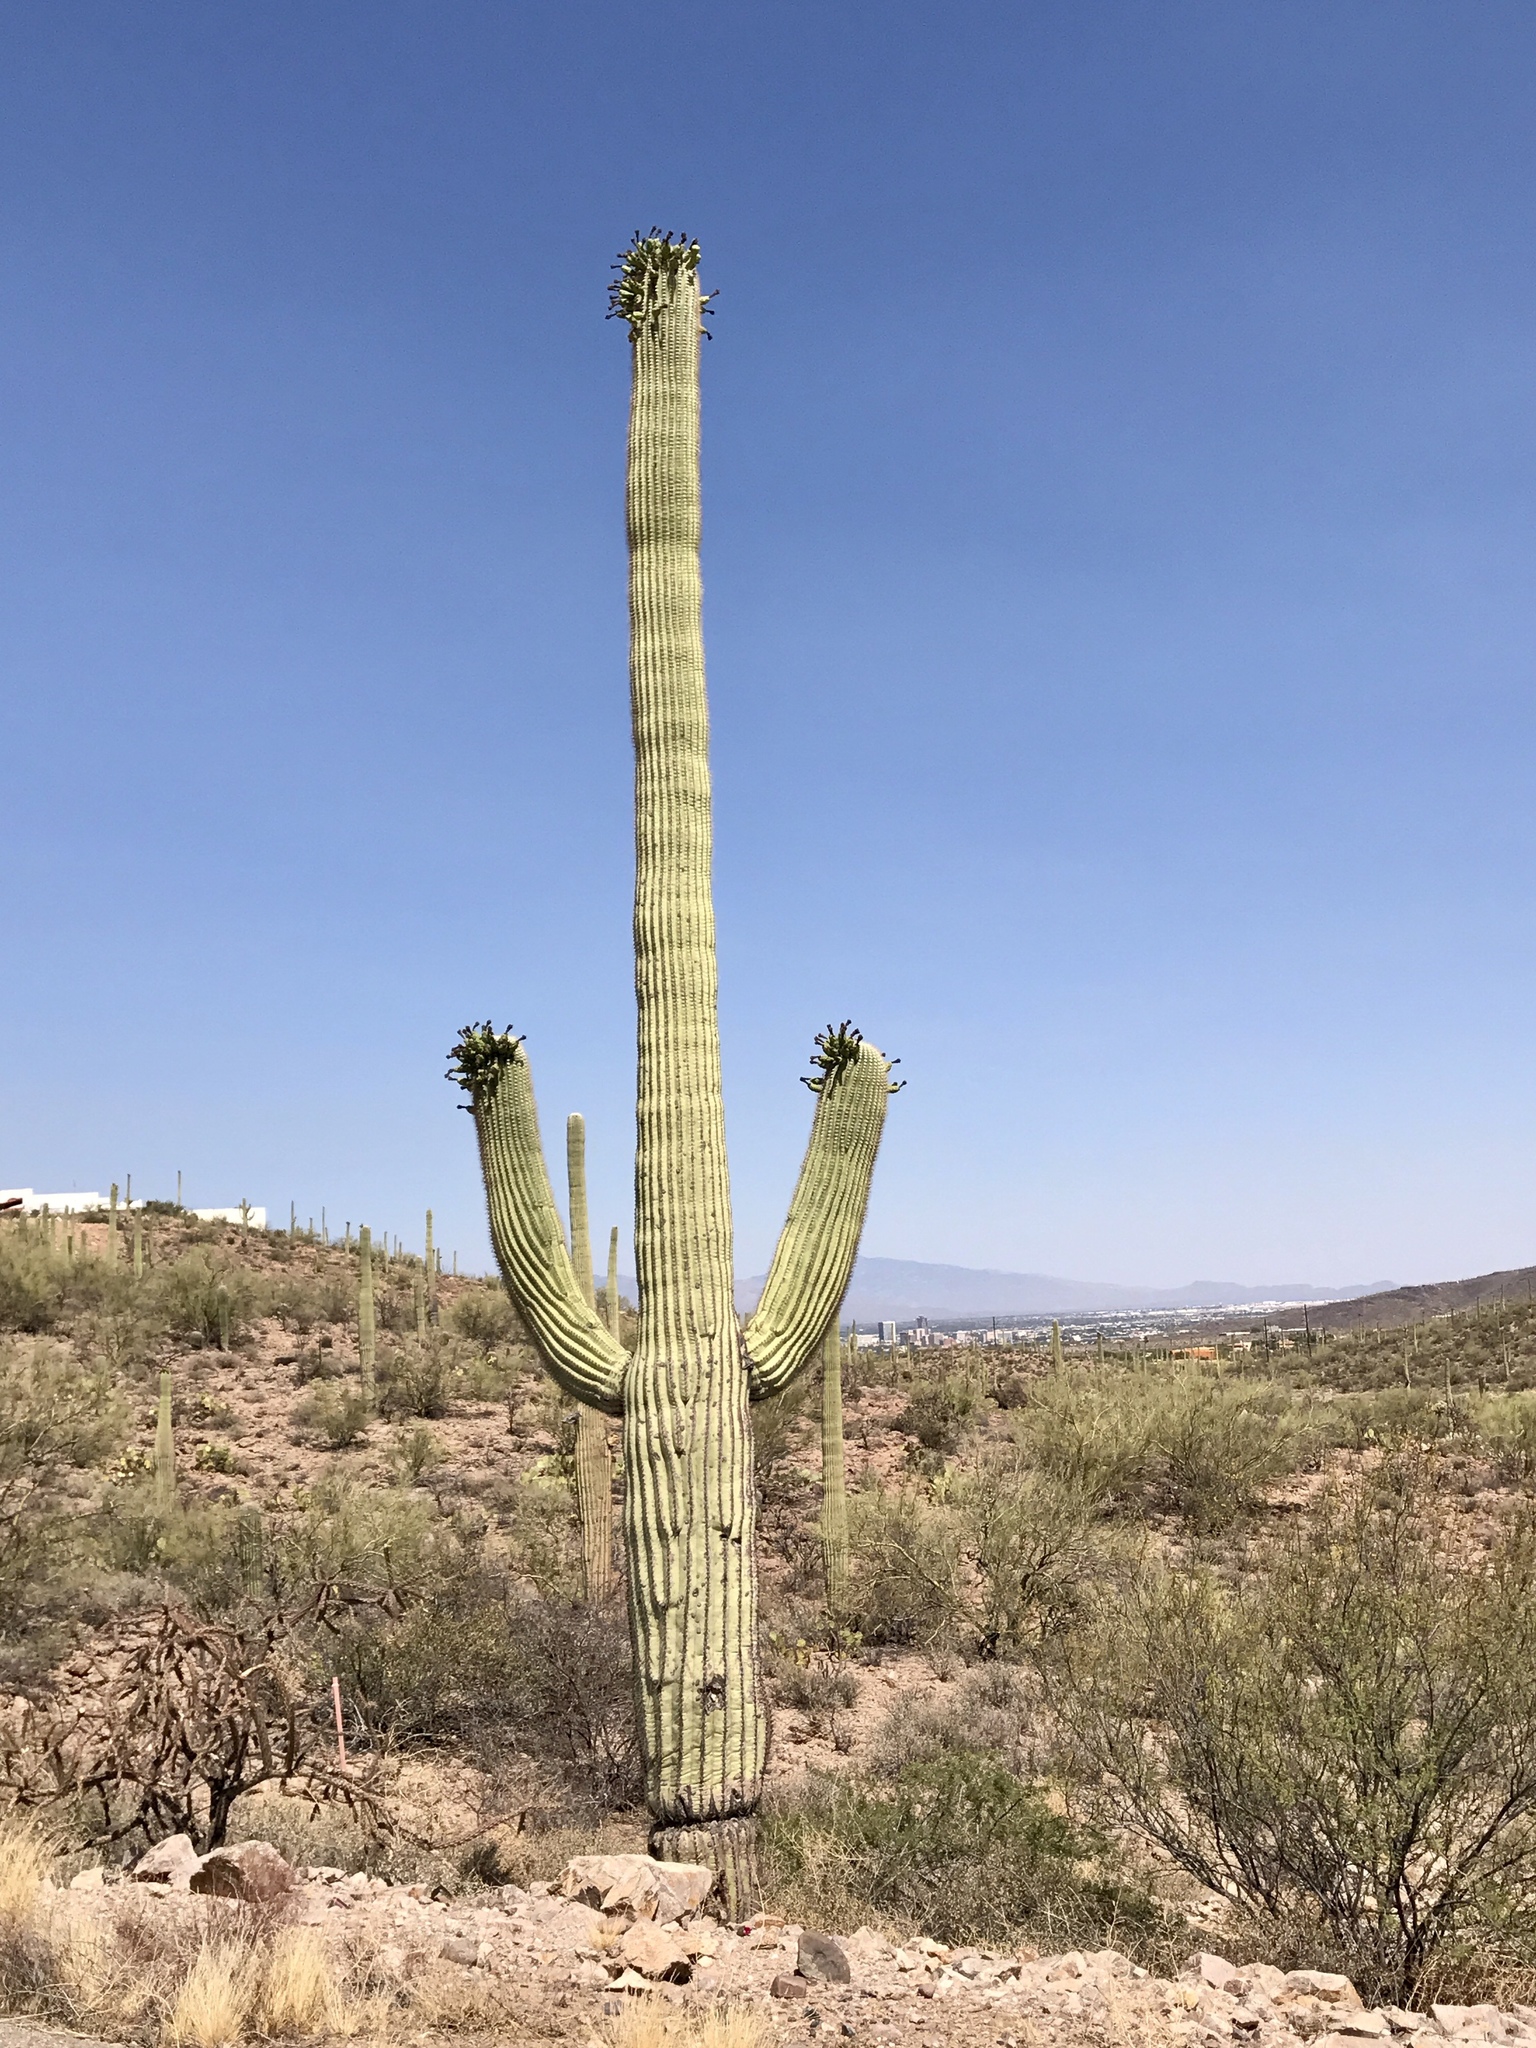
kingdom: Plantae
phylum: Tracheophyta
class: Magnoliopsida
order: Caryophyllales
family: Cactaceae
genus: Carnegiea
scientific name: Carnegiea gigantea
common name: Saguaro
